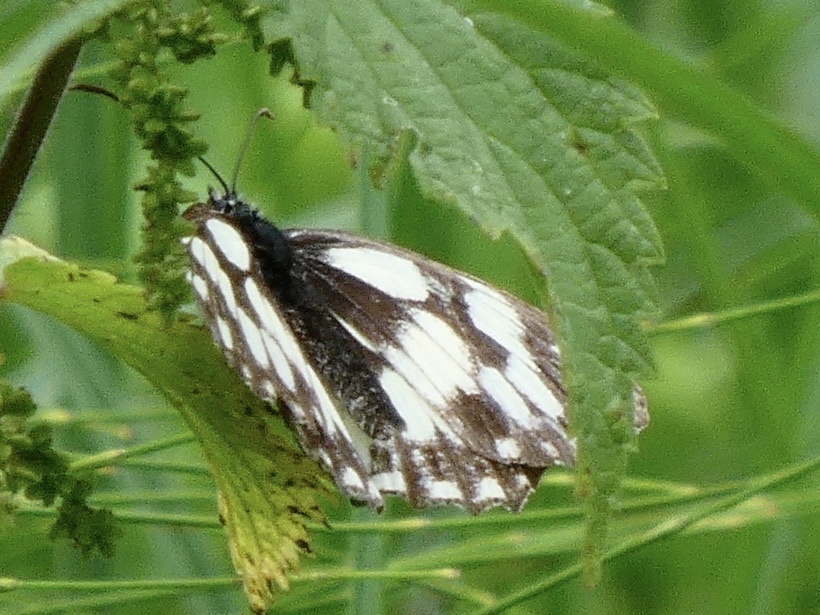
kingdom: Animalia
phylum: Arthropoda
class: Insecta
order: Lepidoptera
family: Nymphalidae
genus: Melanargia
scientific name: Melanargia galathea
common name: Marbled white
